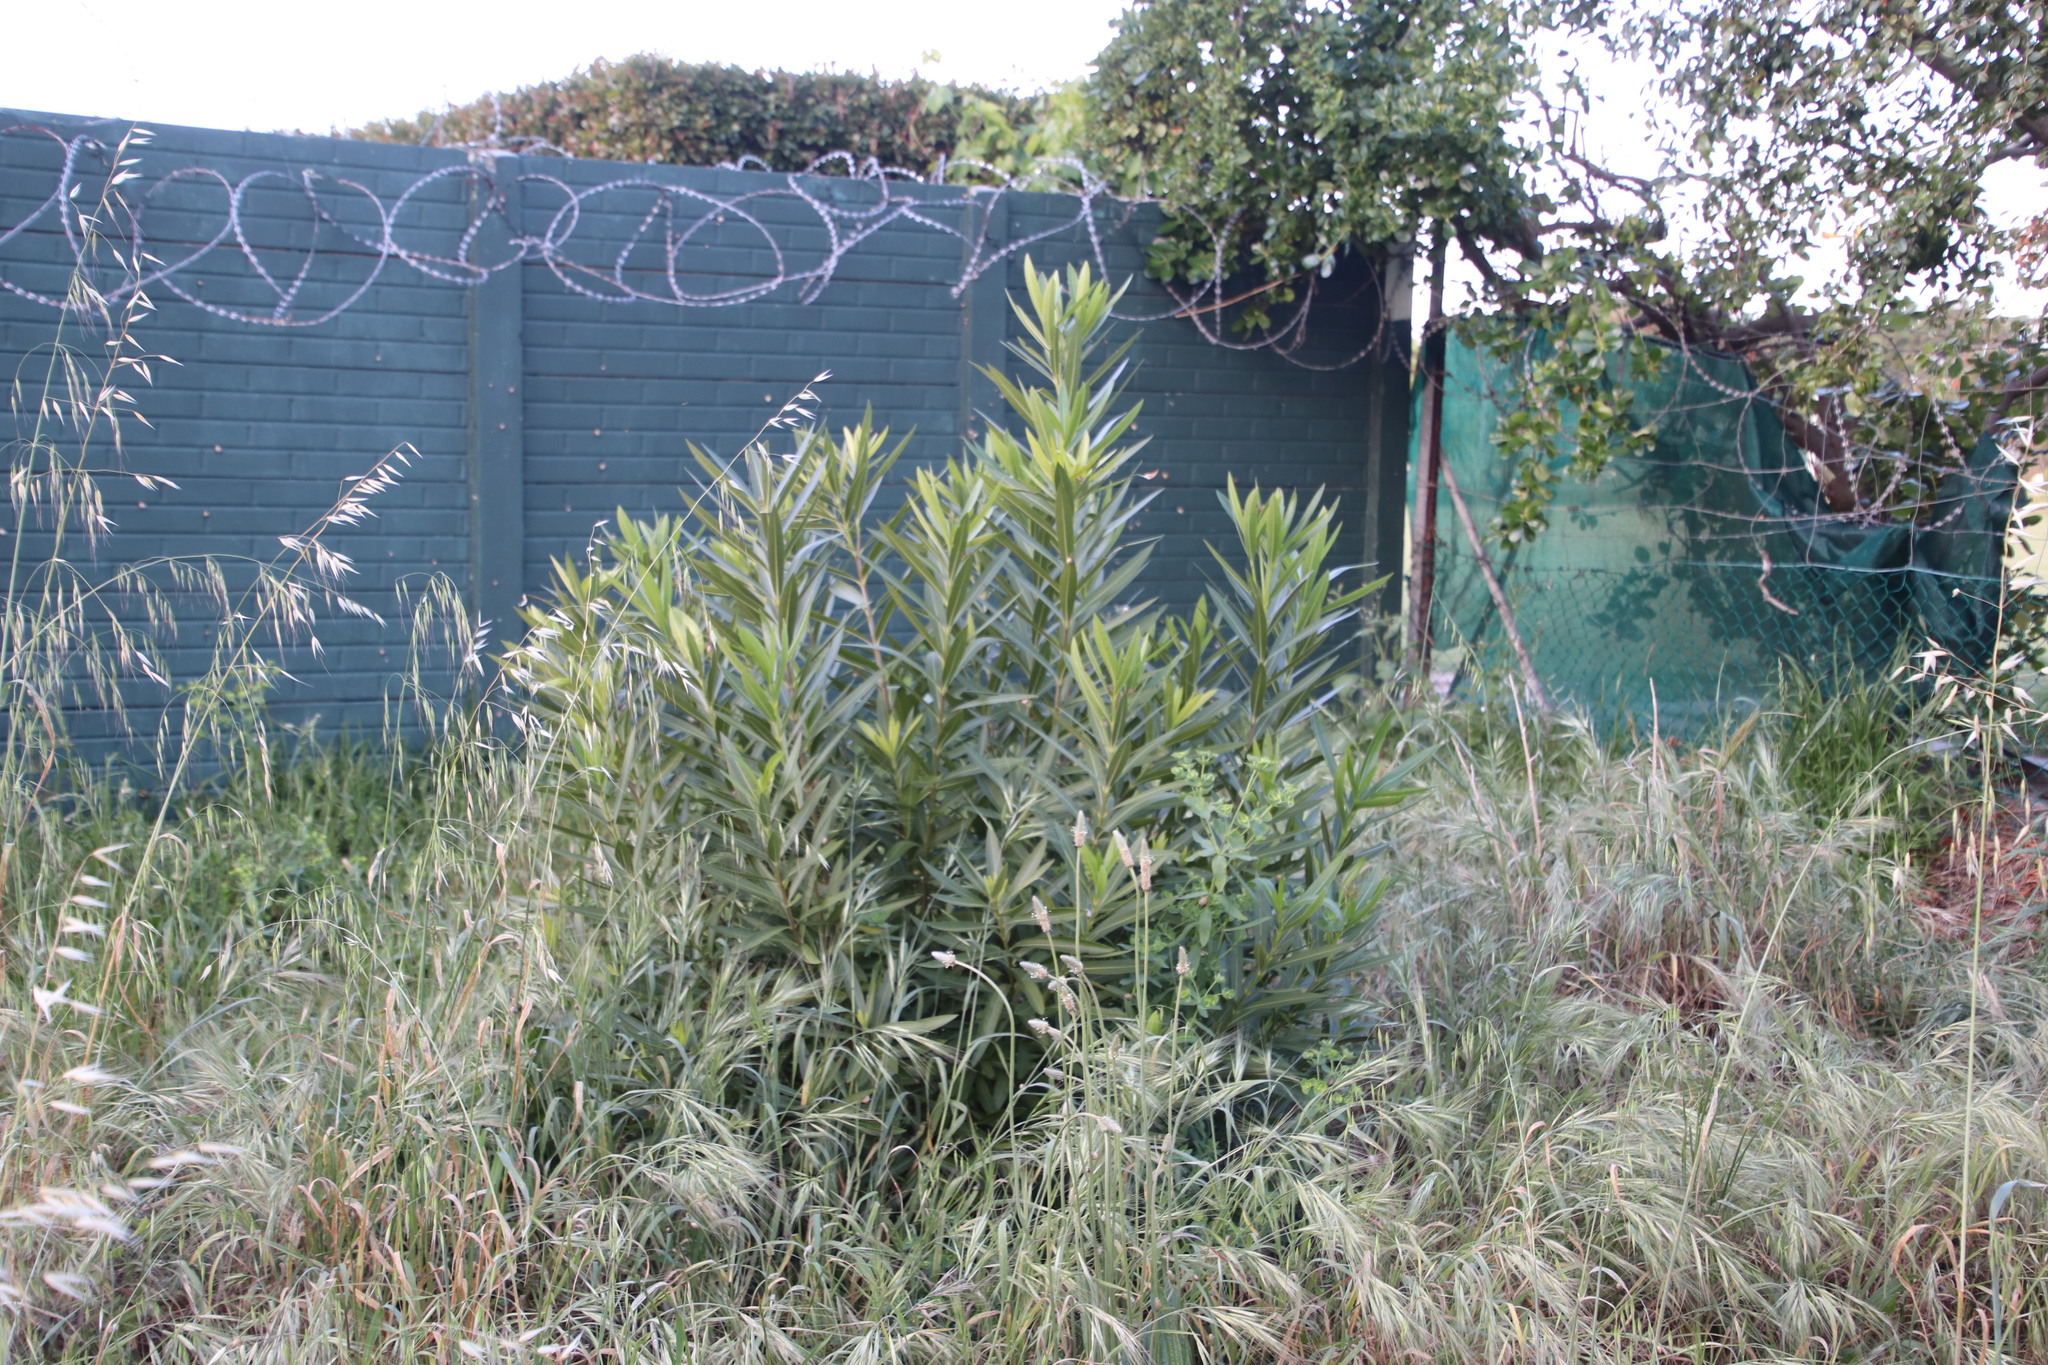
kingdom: Plantae
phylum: Tracheophyta
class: Magnoliopsida
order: Gentianales
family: Apocynaceae
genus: Nerium
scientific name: Nerium oleander
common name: Oleander
